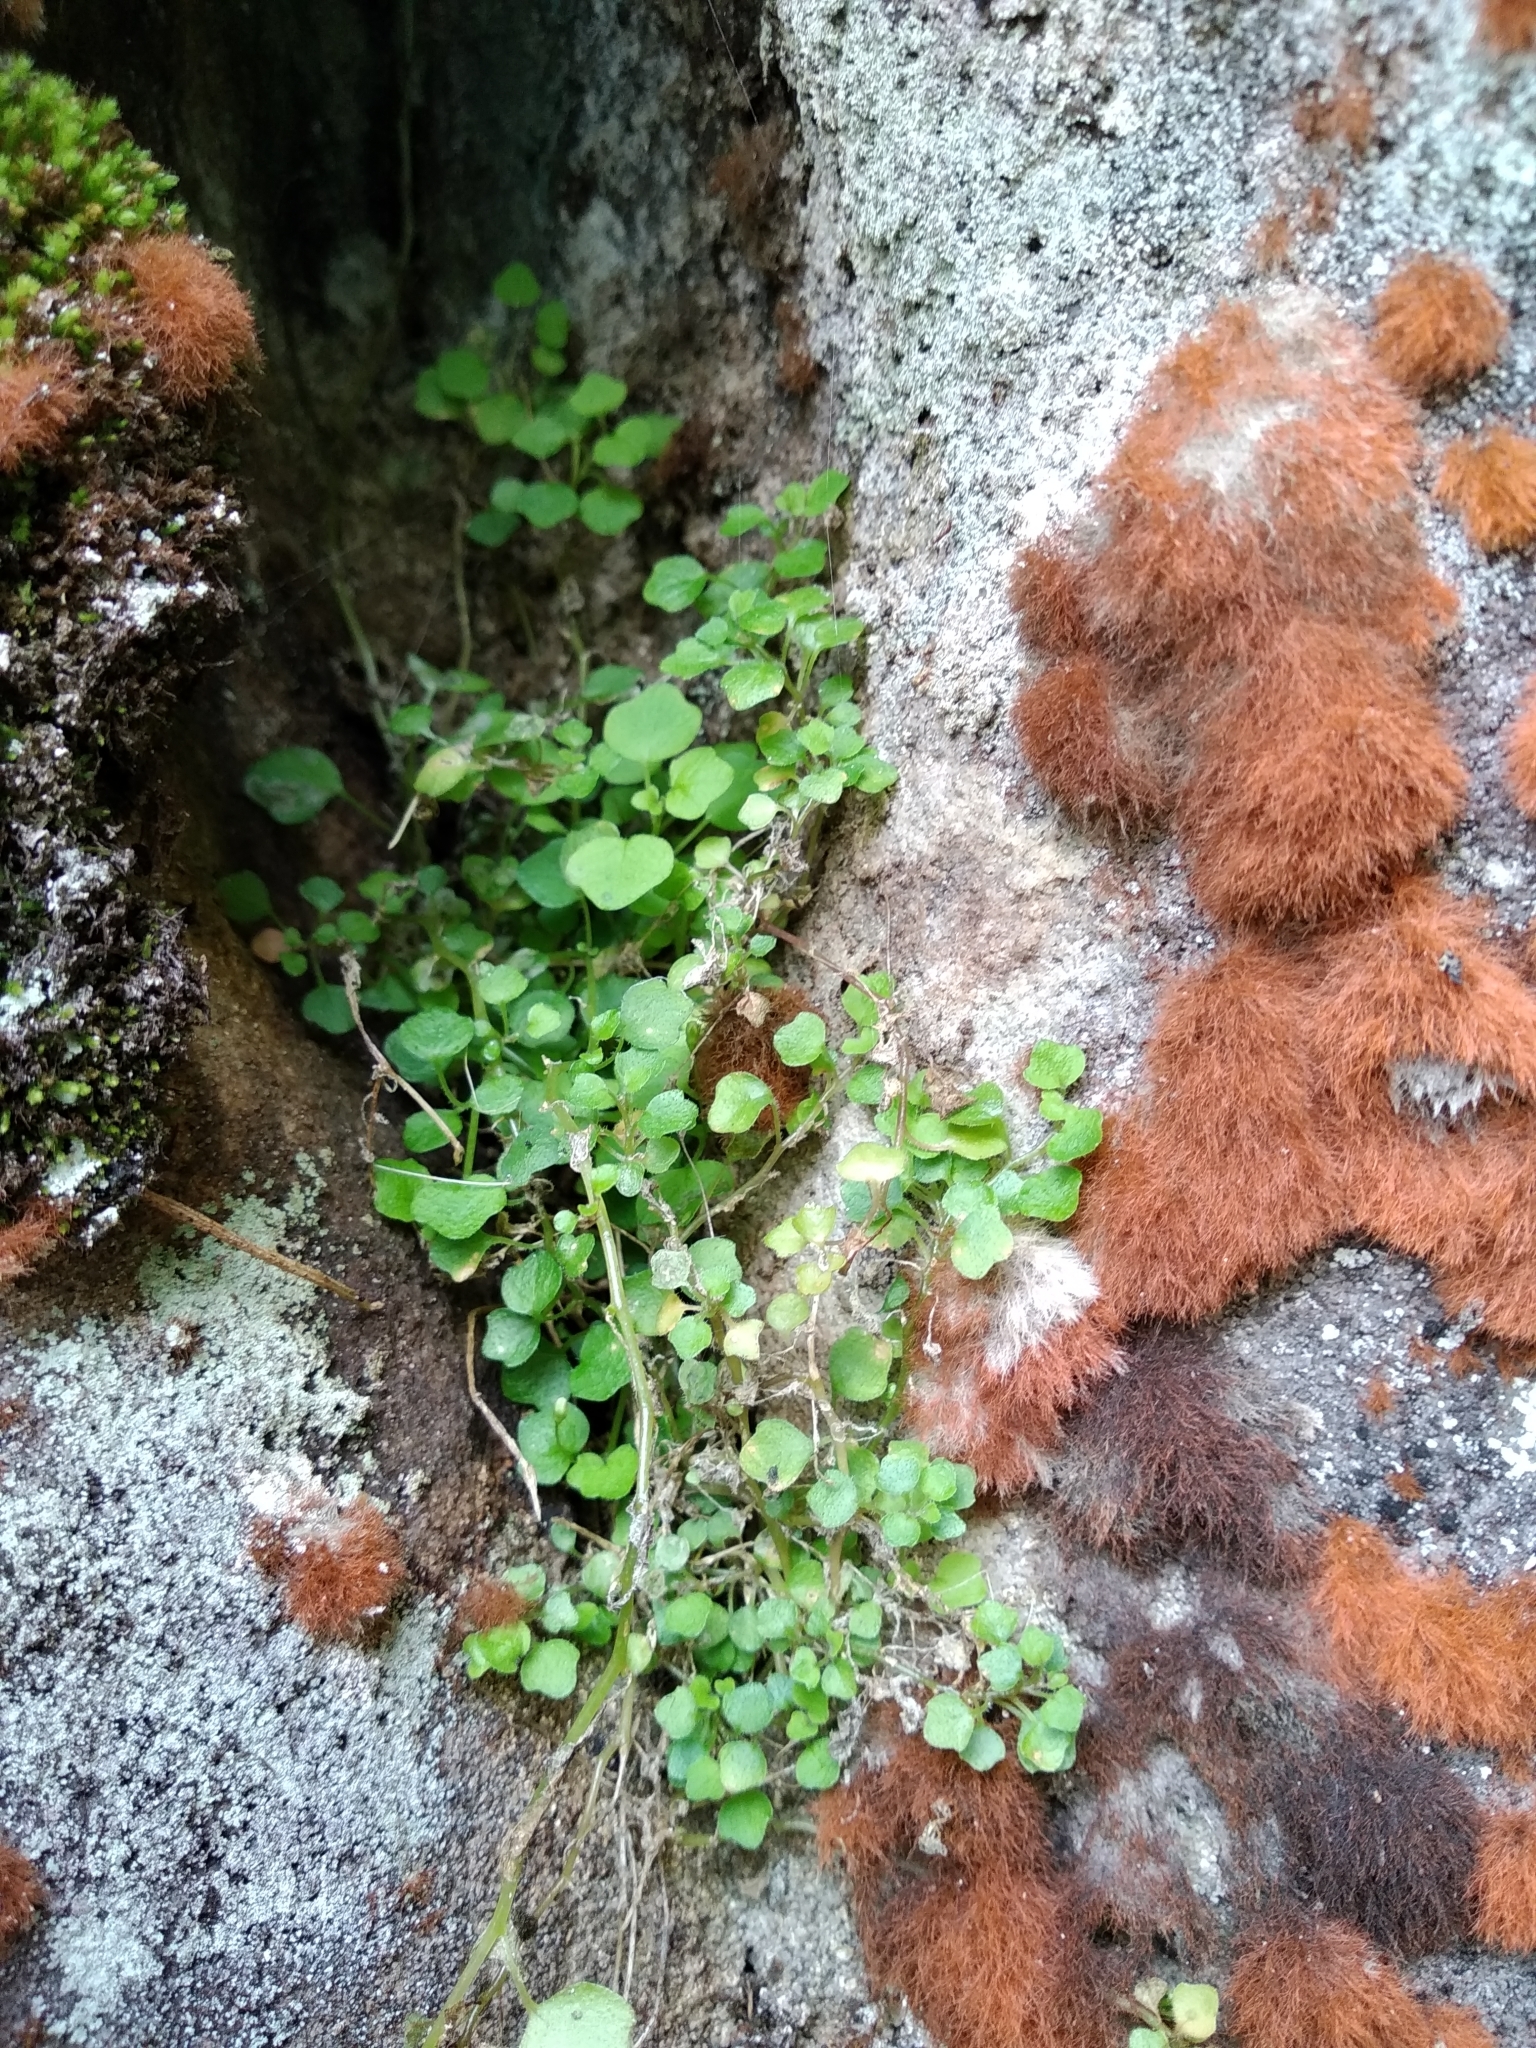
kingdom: Plantae
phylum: Tracheophyta
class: Magnoliopsida
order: Asterales
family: Campanulaceae
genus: Wimmerella
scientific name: Wimmerella pygmaea
